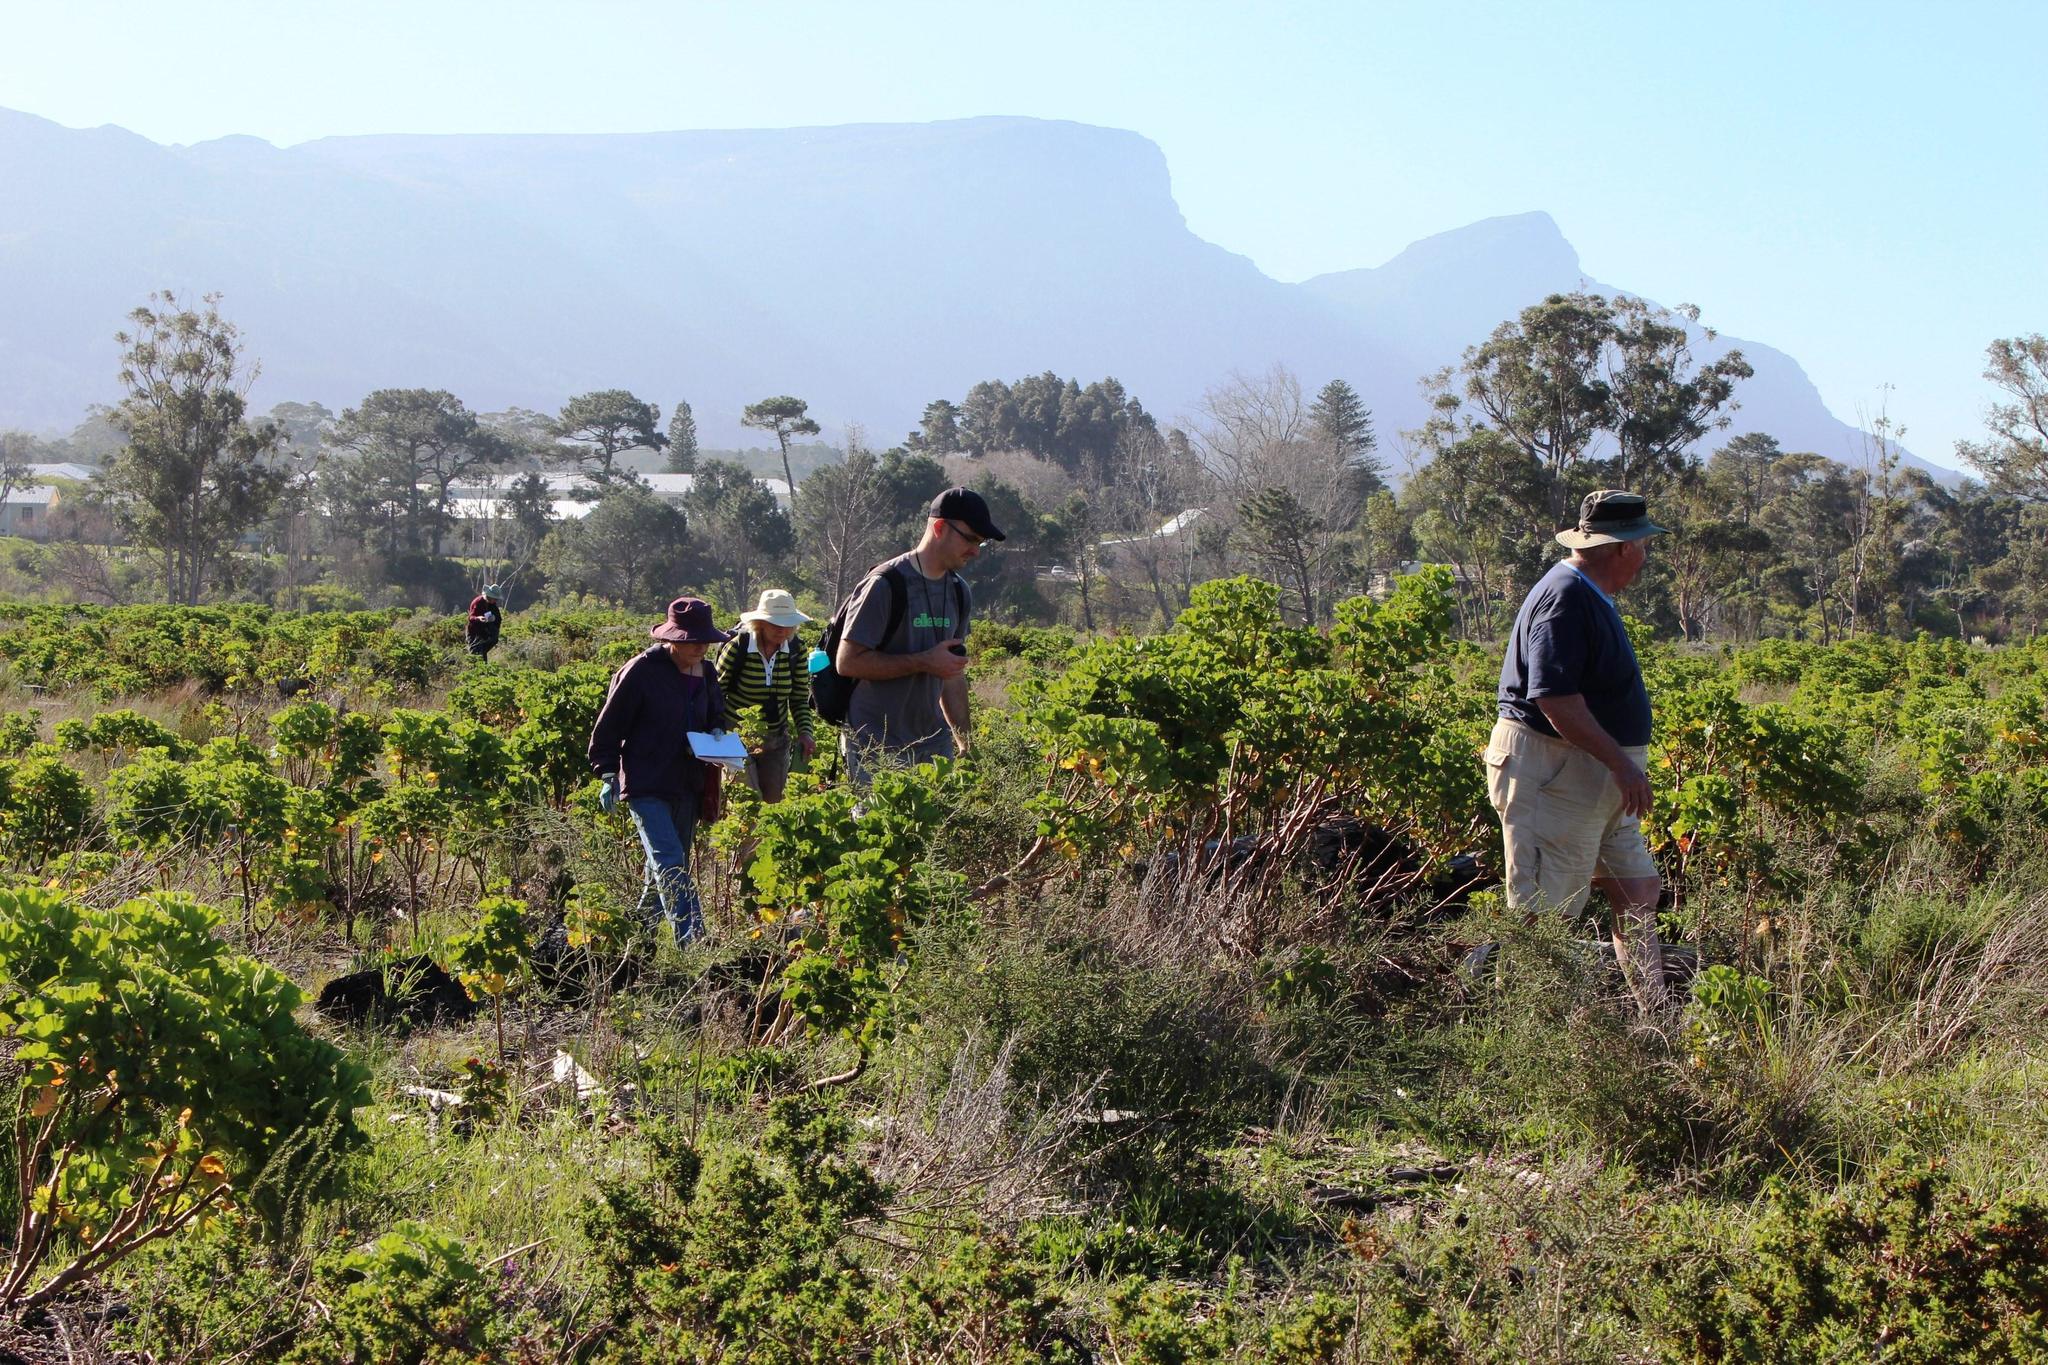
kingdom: Plantae
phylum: Tracheophyta
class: Magnoliopsida
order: Geraniales
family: Geraniaceae
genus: Pelargonium
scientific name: Pelargonium cucullatum
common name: Tree pelargonium
